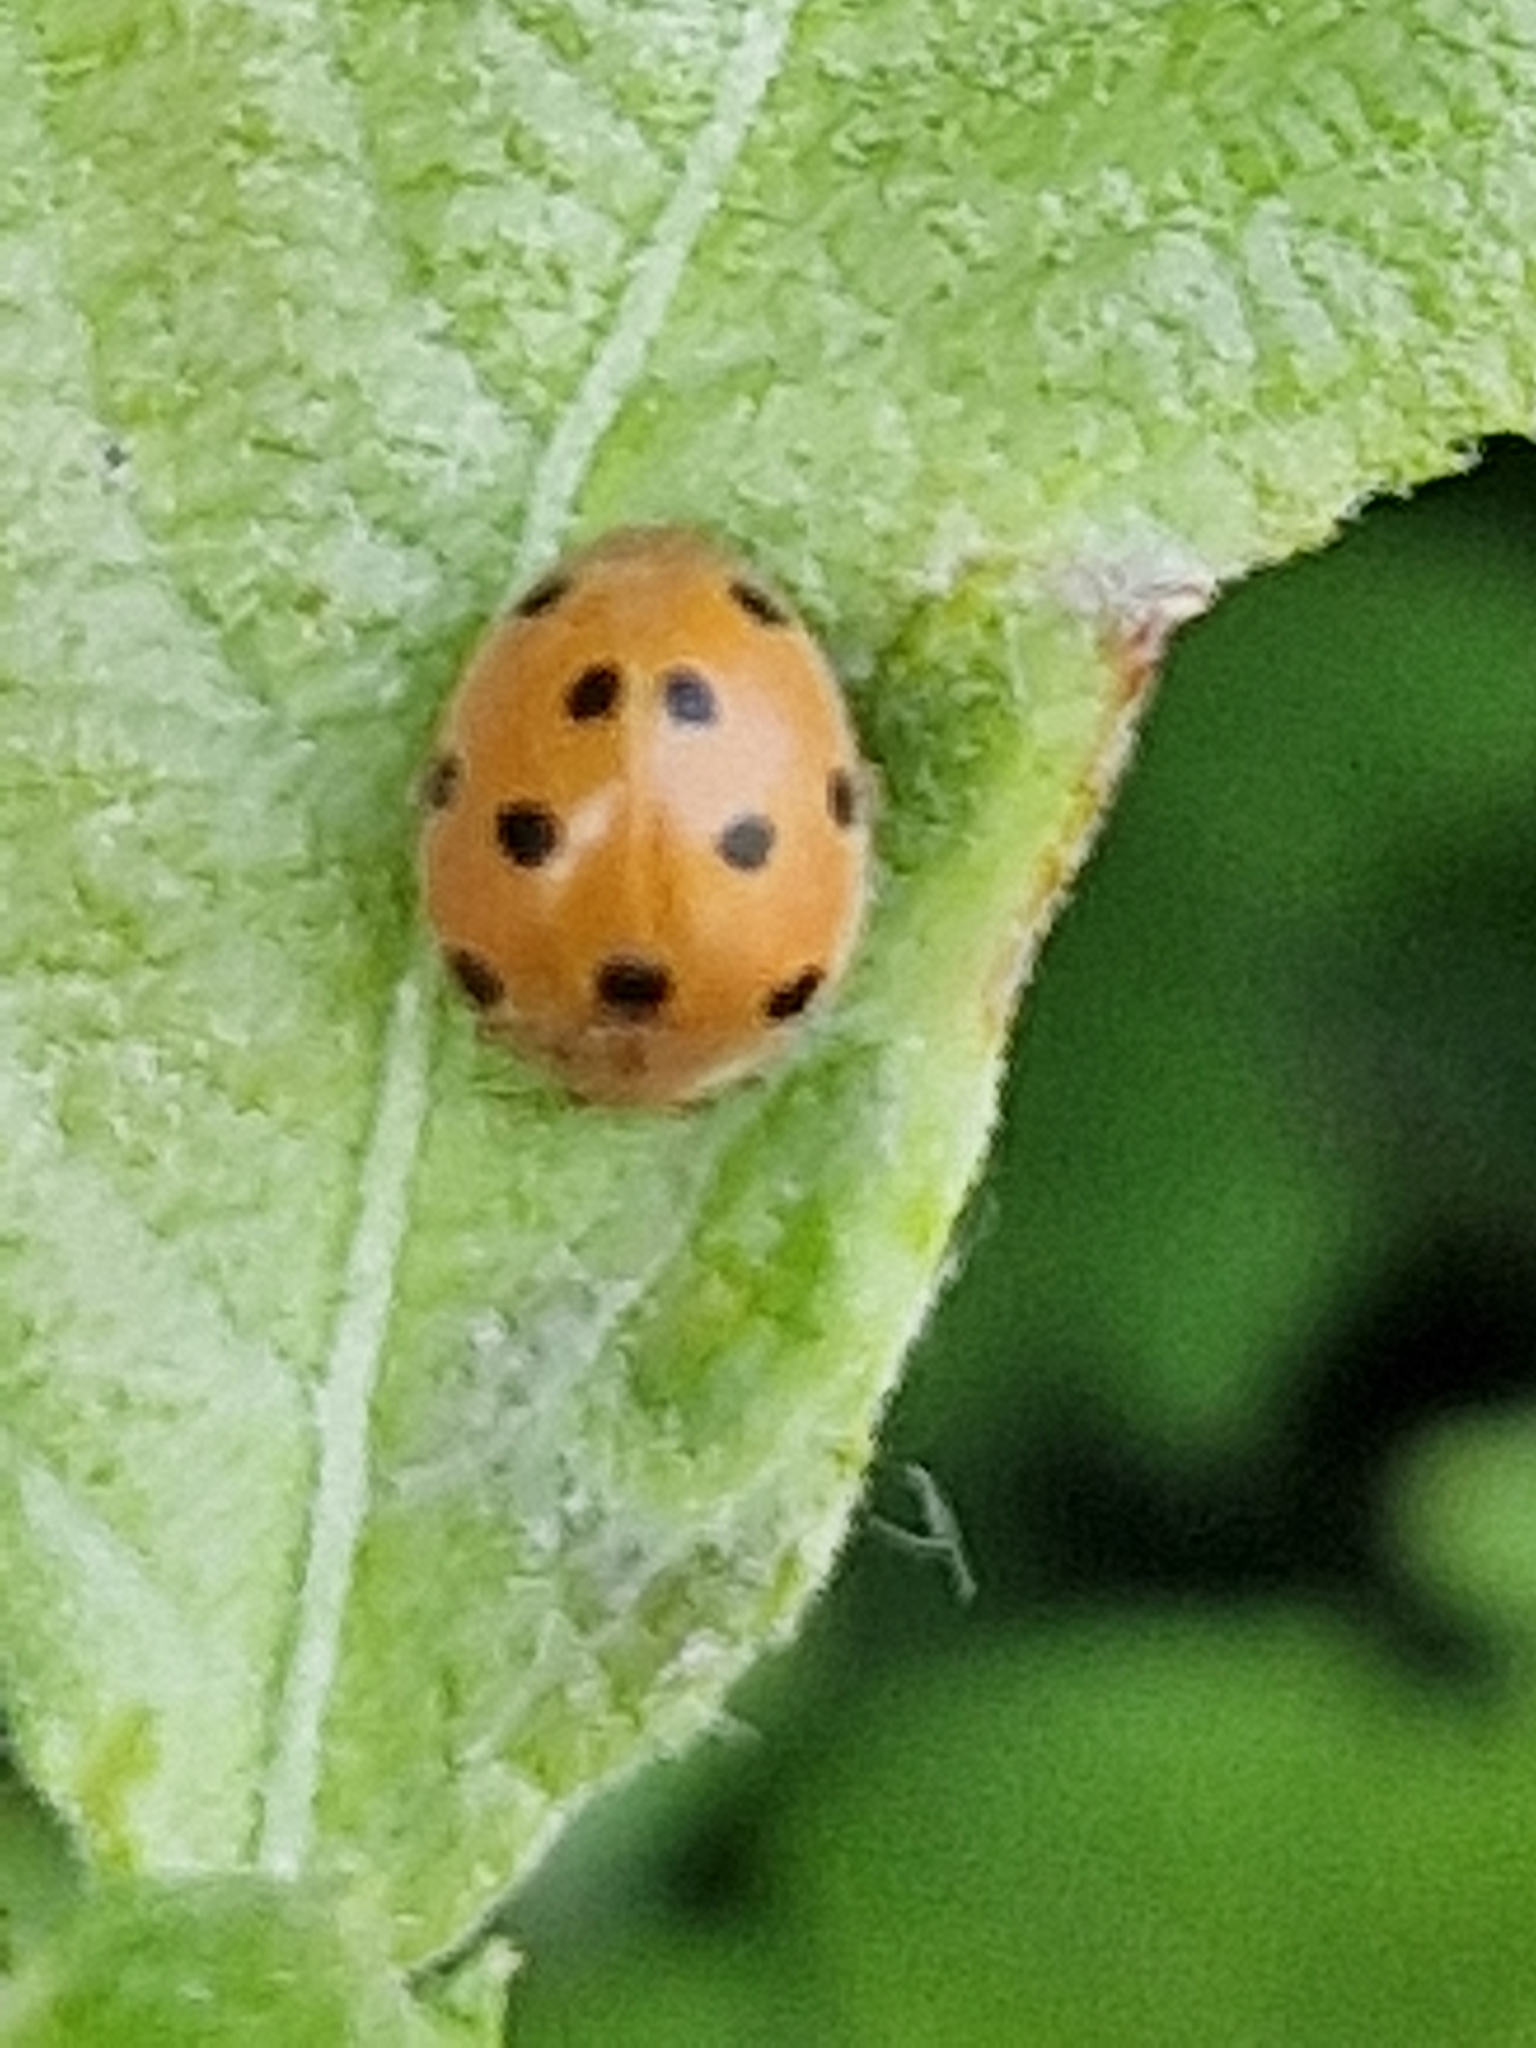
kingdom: Animalia
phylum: Arthropoda
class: Insecta
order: Coleoptera
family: Coccinellidae
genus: Henosepilachna
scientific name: Henosepilachna argus
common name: Bryony ladybird
